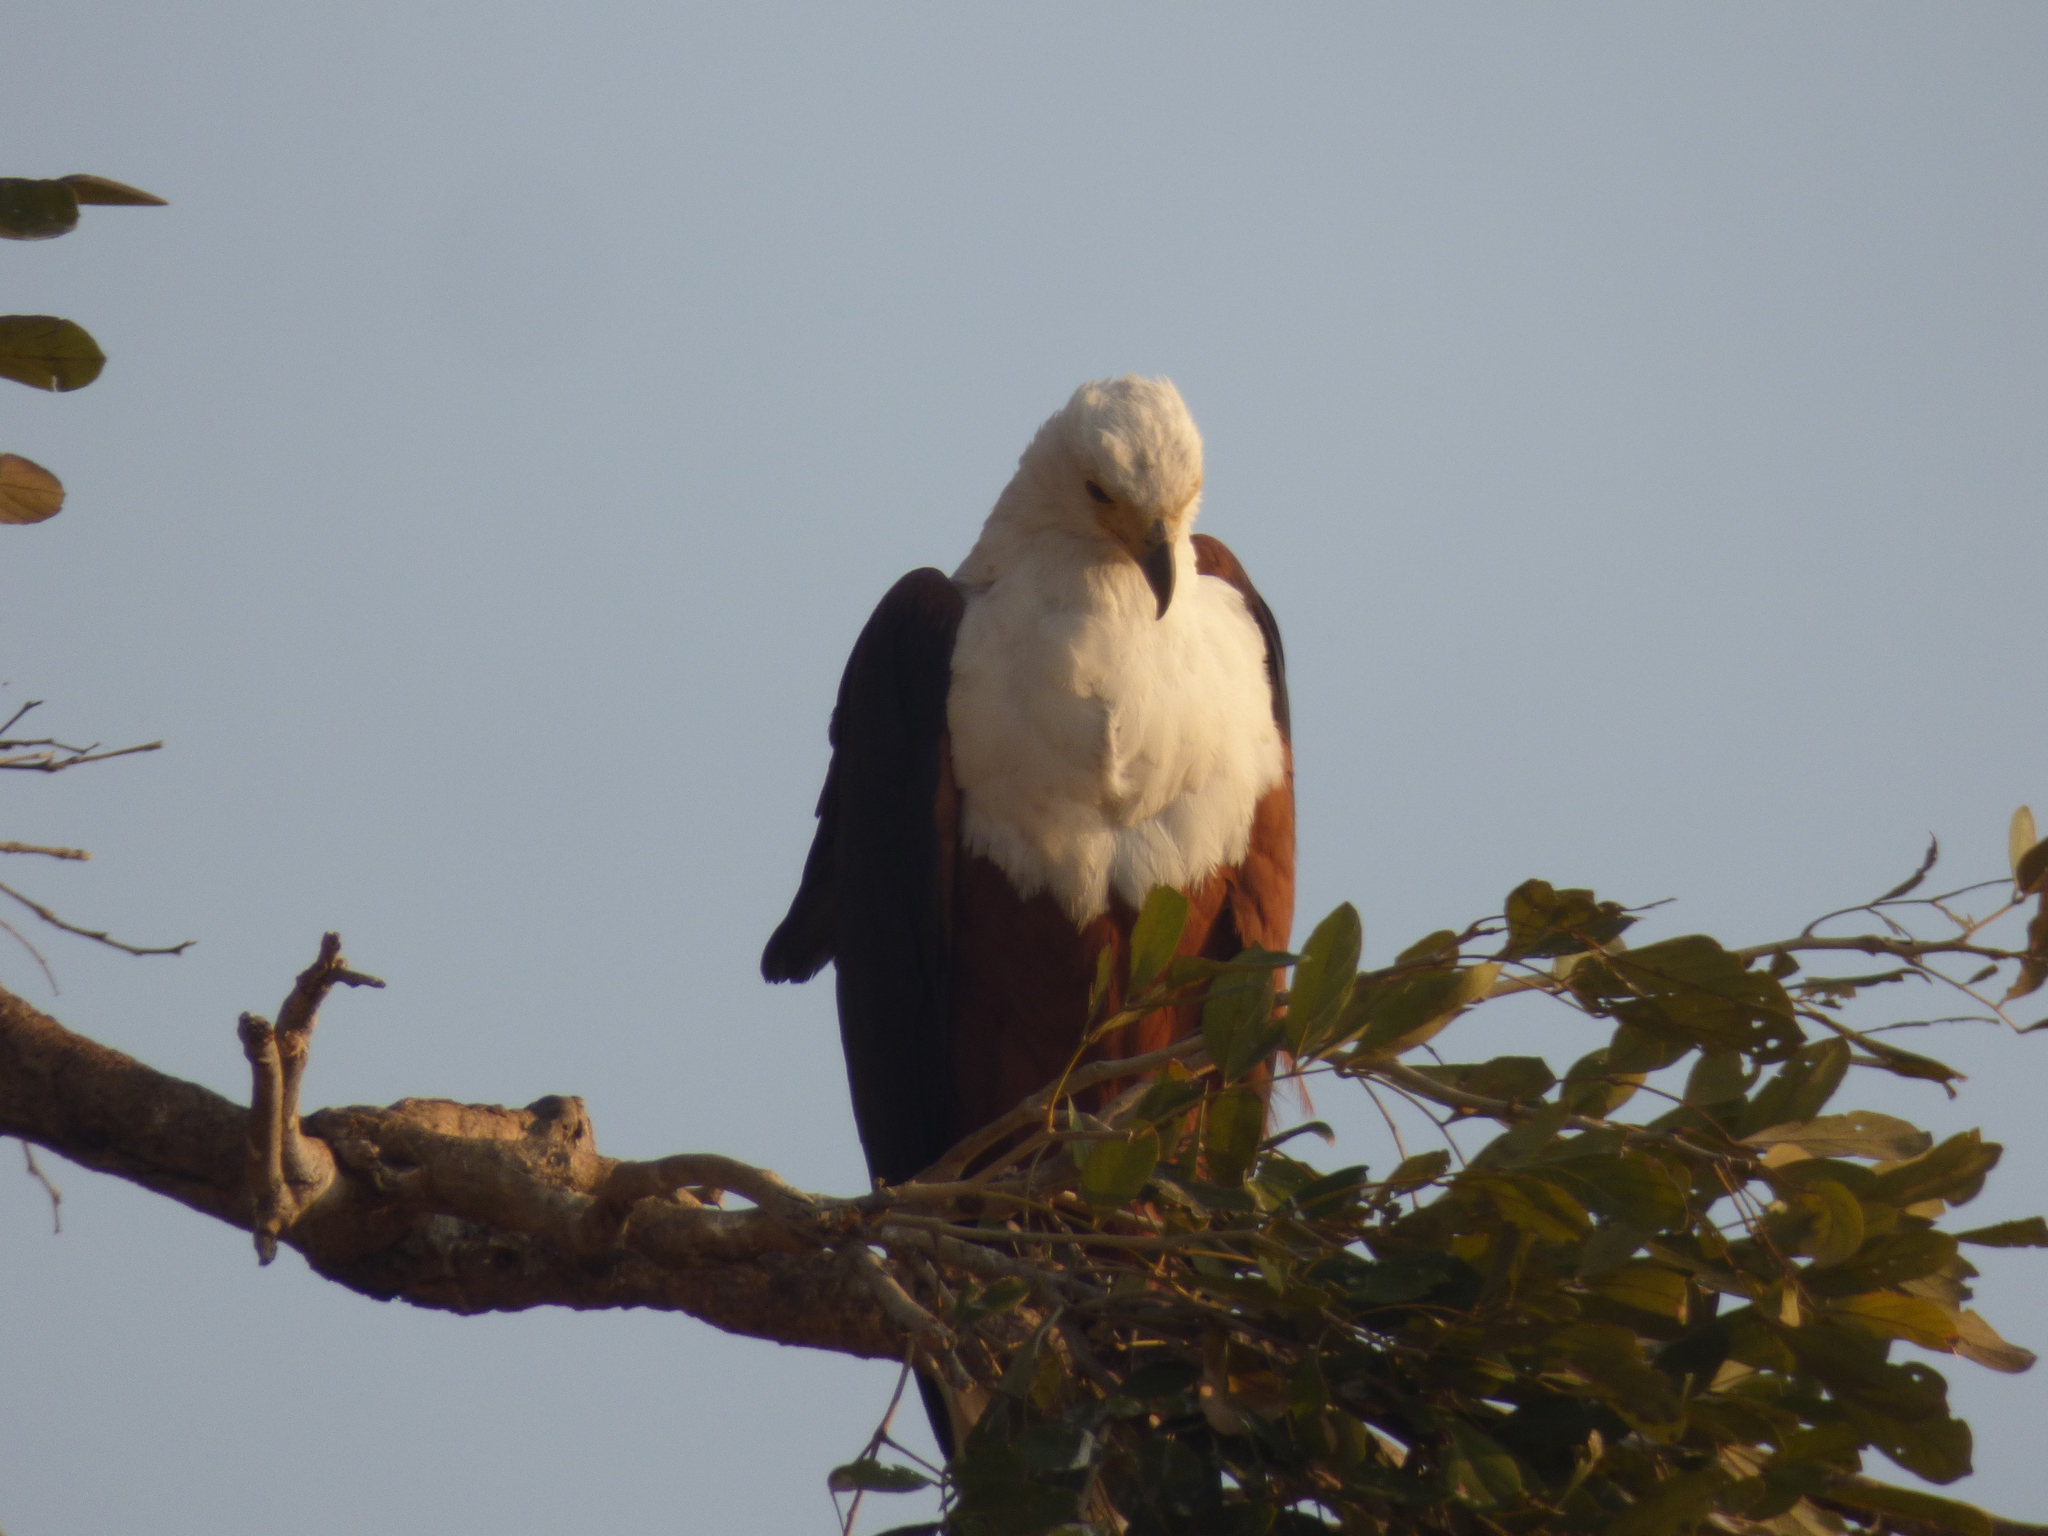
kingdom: Animalia
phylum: Chordata
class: Aves
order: Accipitriformes
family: Accipitridae
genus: Haliaeetus
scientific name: Haliaeetus vocifer
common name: African fish eagle
